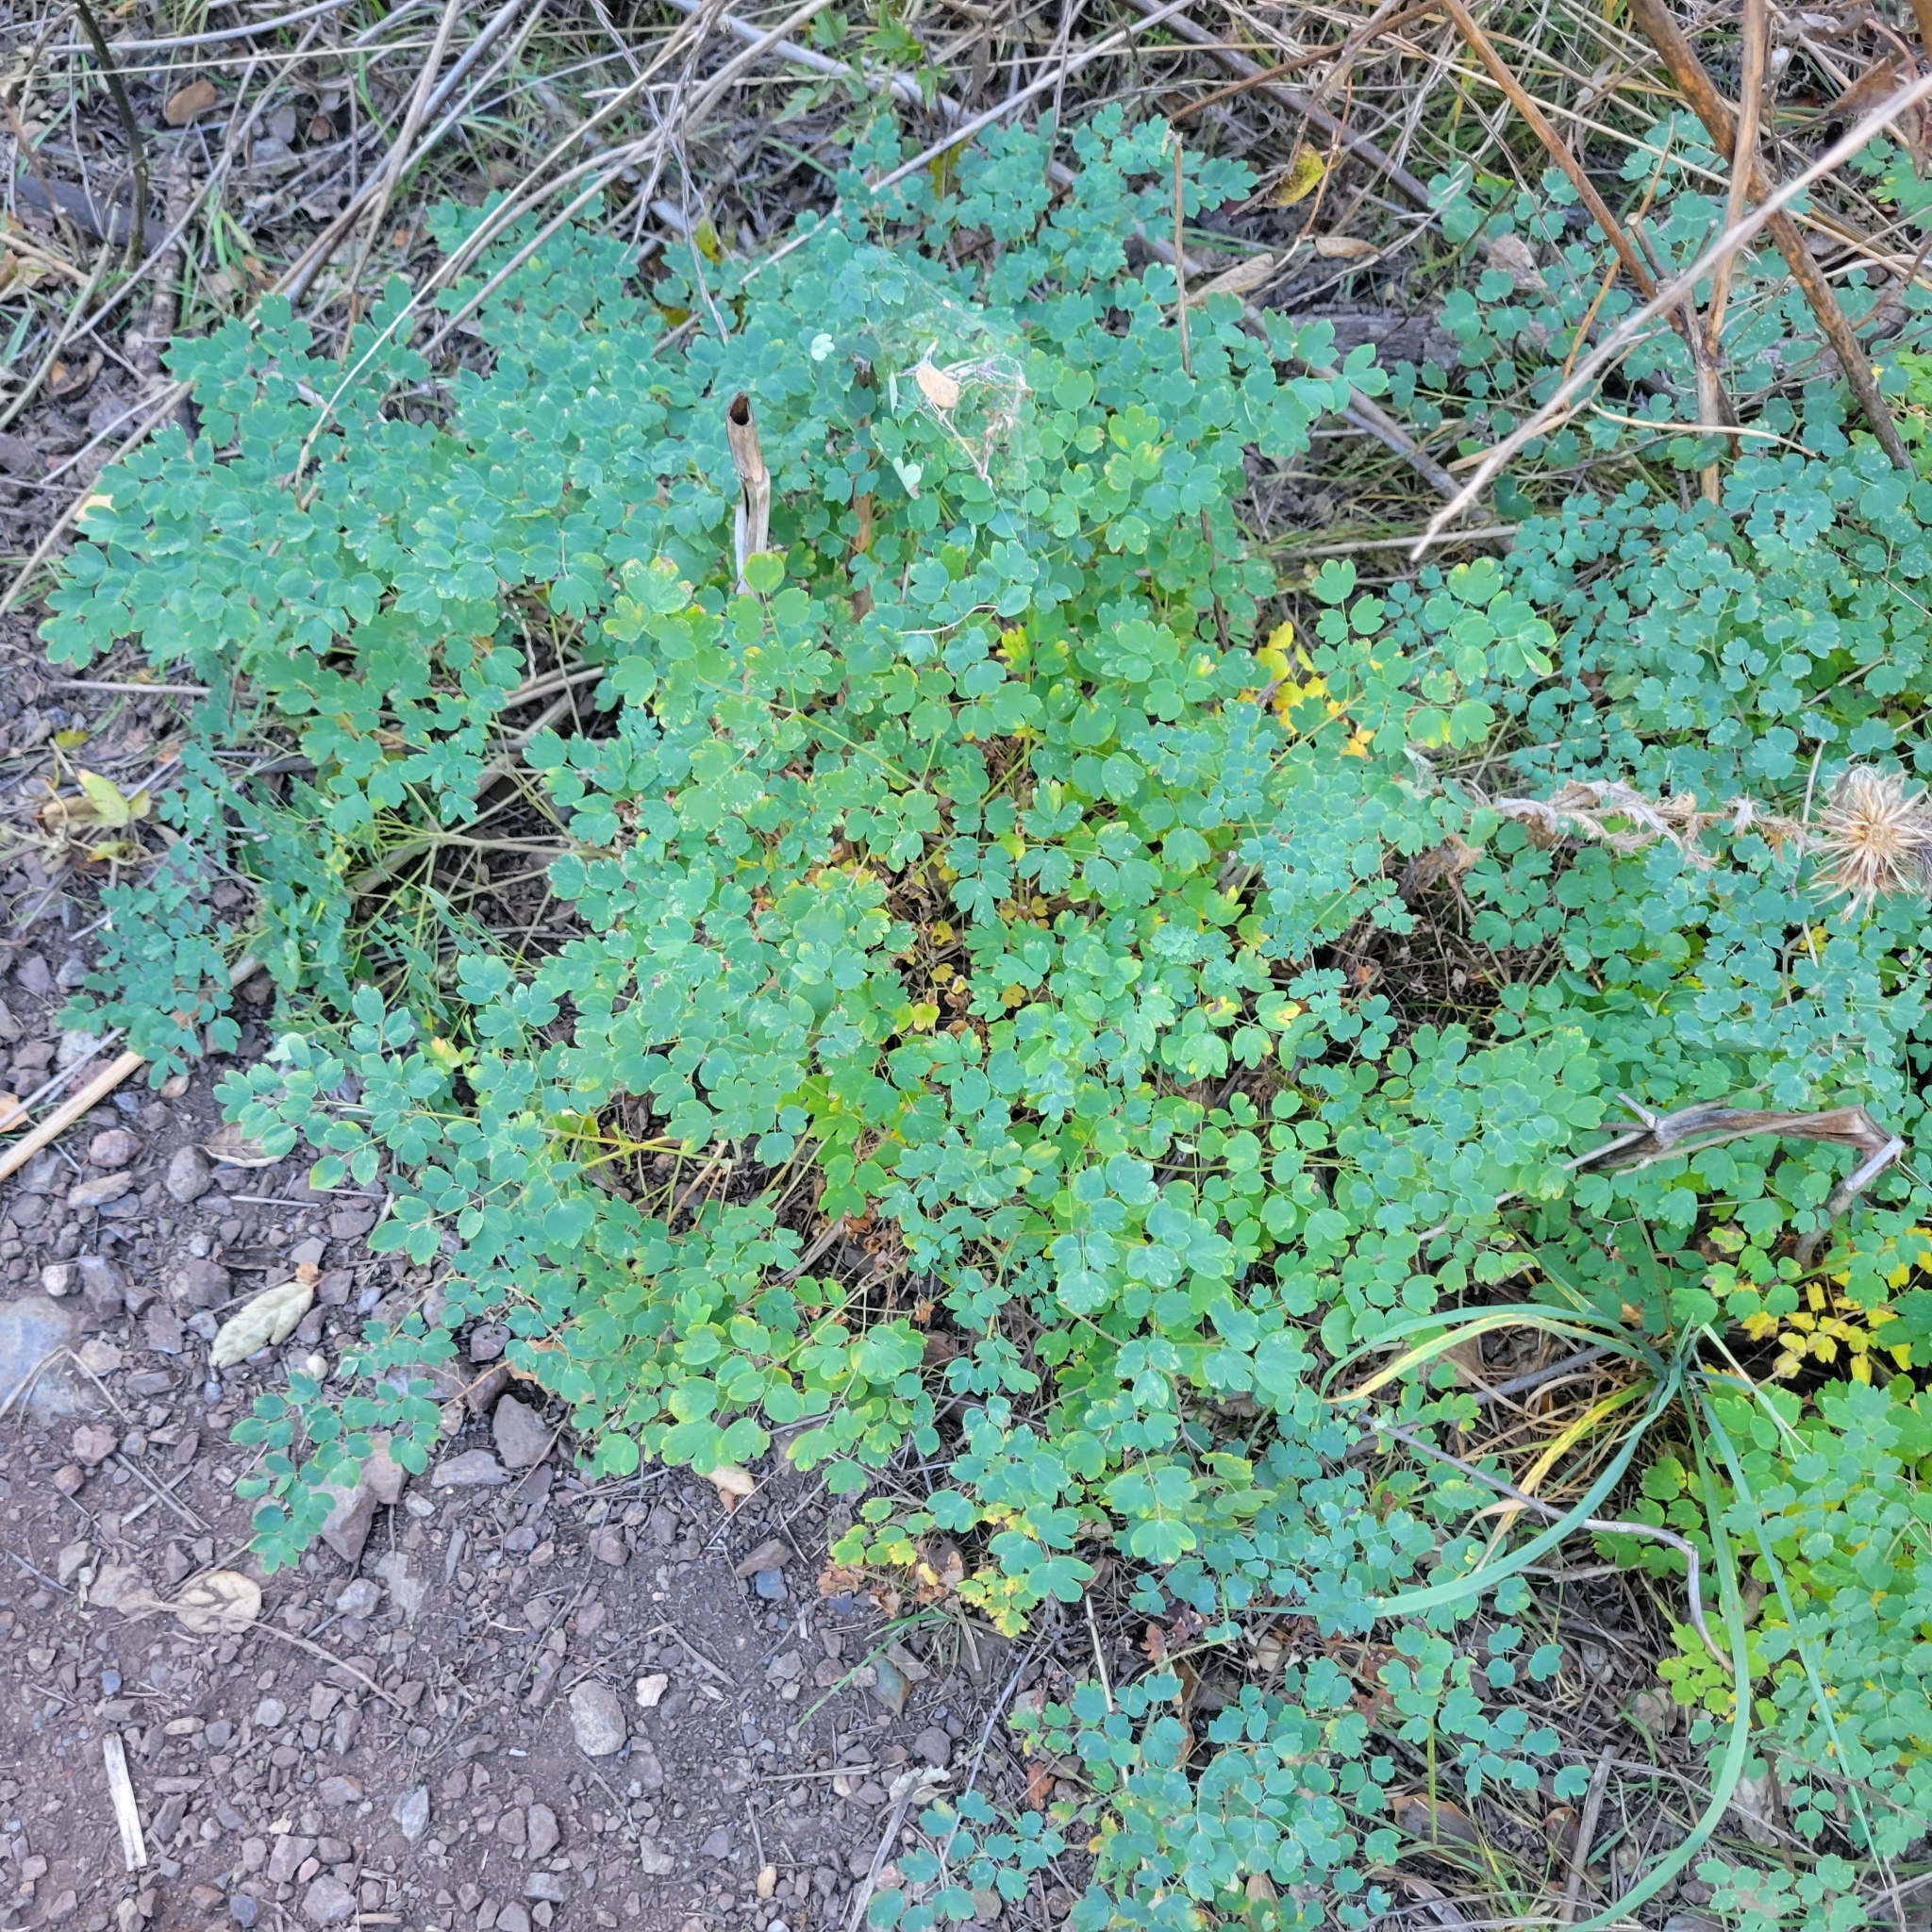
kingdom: Plantae
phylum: Tracheophyta
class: Magnoliopsida
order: Ranunculales
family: Ranunculaceae
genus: Thalictrum
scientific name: Thalictrum fendleri
